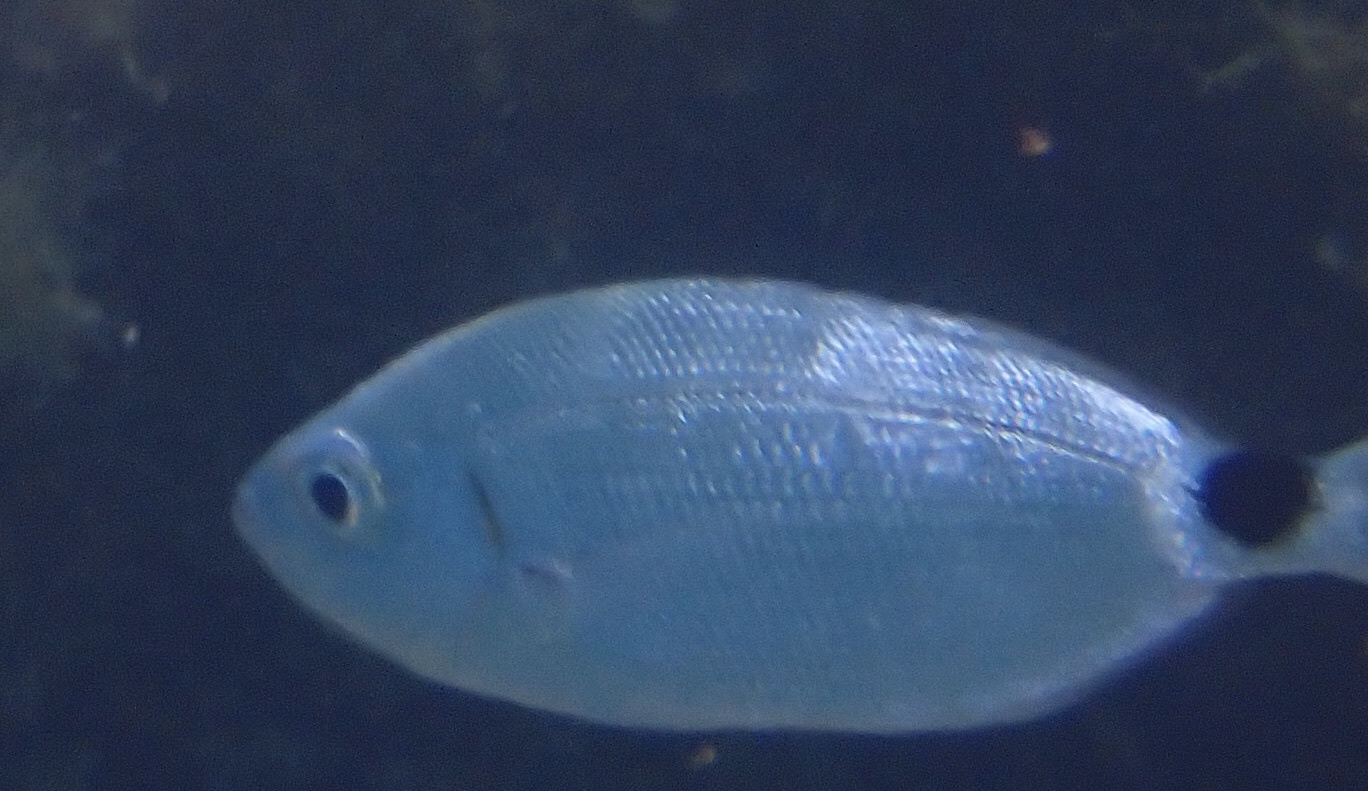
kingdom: Animalia
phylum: Chordata
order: Perciformes
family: Sparidae
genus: Oblada
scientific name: Oblada melanura
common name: Saddled seabream
